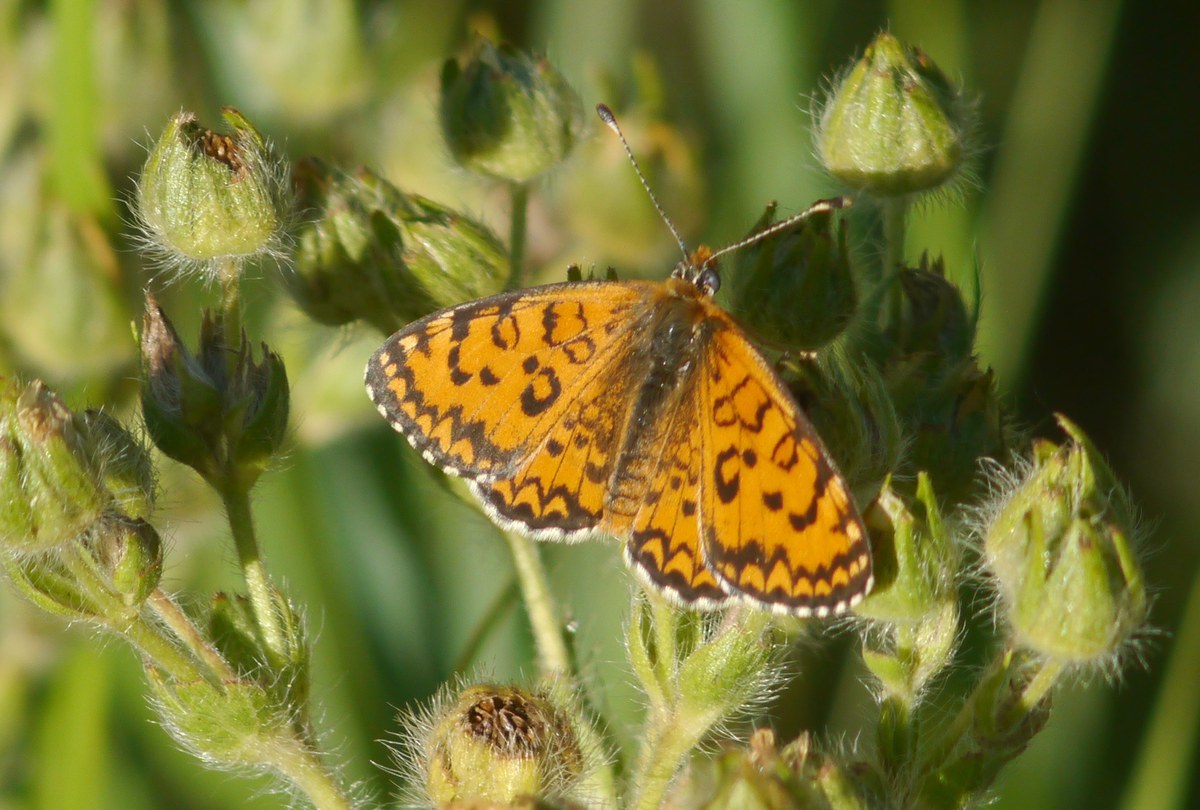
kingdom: Animalia
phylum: Arthropoda
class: Insecta
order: Lepidoptera
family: Nymphalidae
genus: Melitaea
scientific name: Melitaea trivia
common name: Lesser spotted fritillary
